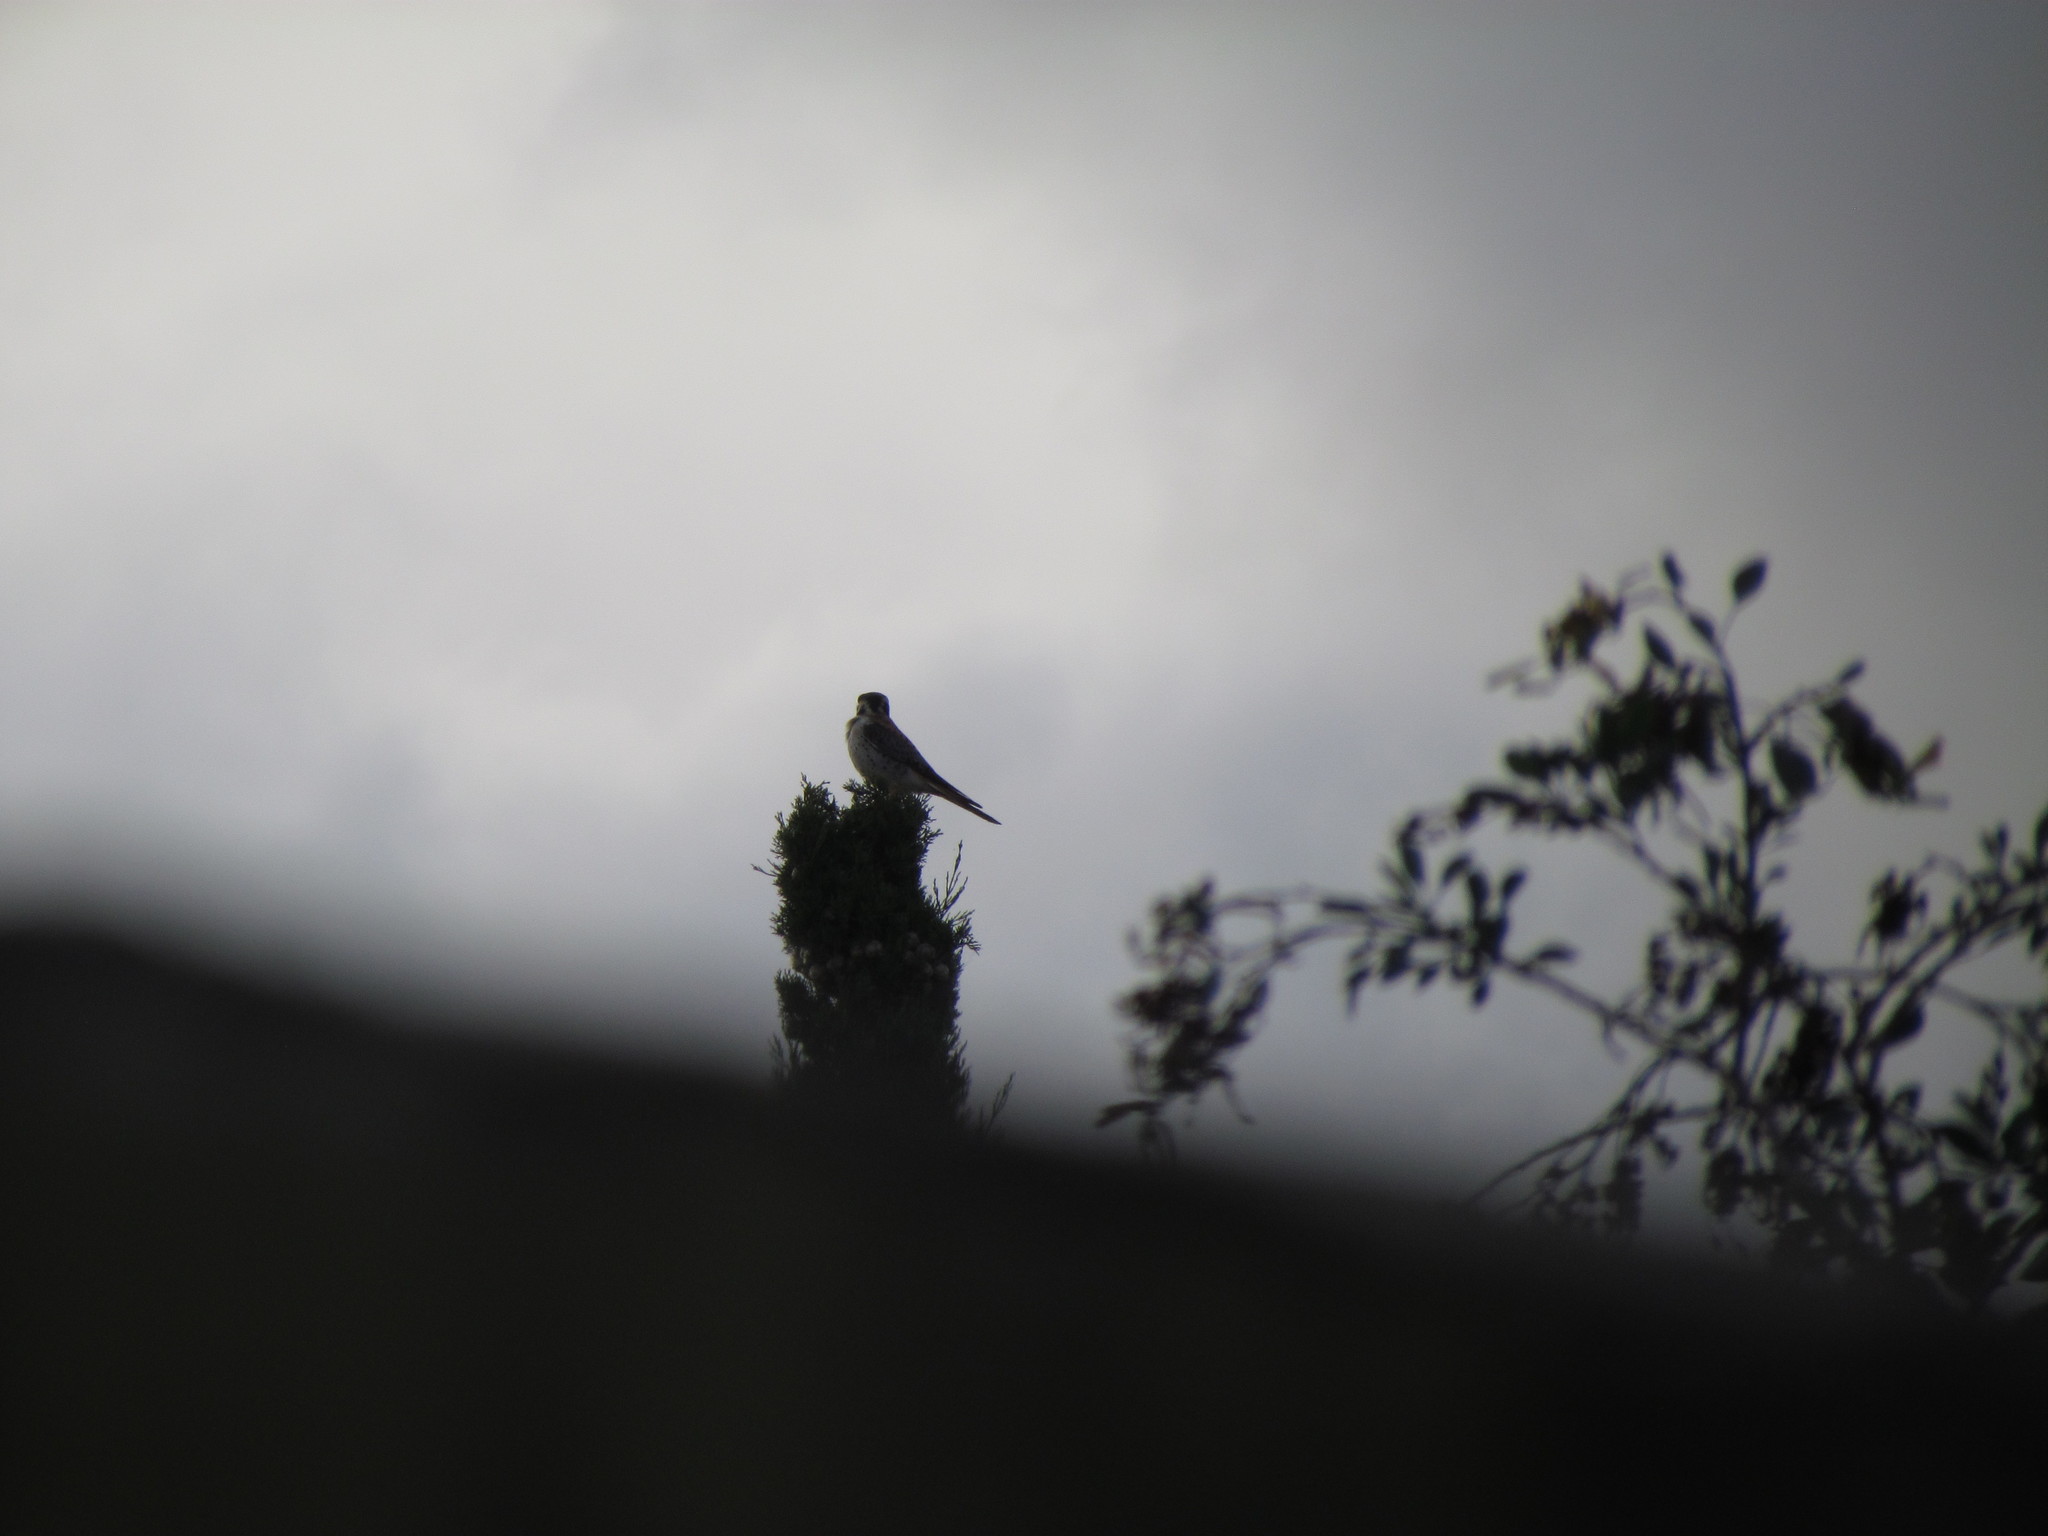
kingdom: Animalia
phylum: Chordata
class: Aves
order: Falconiformes
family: Falconidae
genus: Falco
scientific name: Falco sparverius
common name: American kestrel
